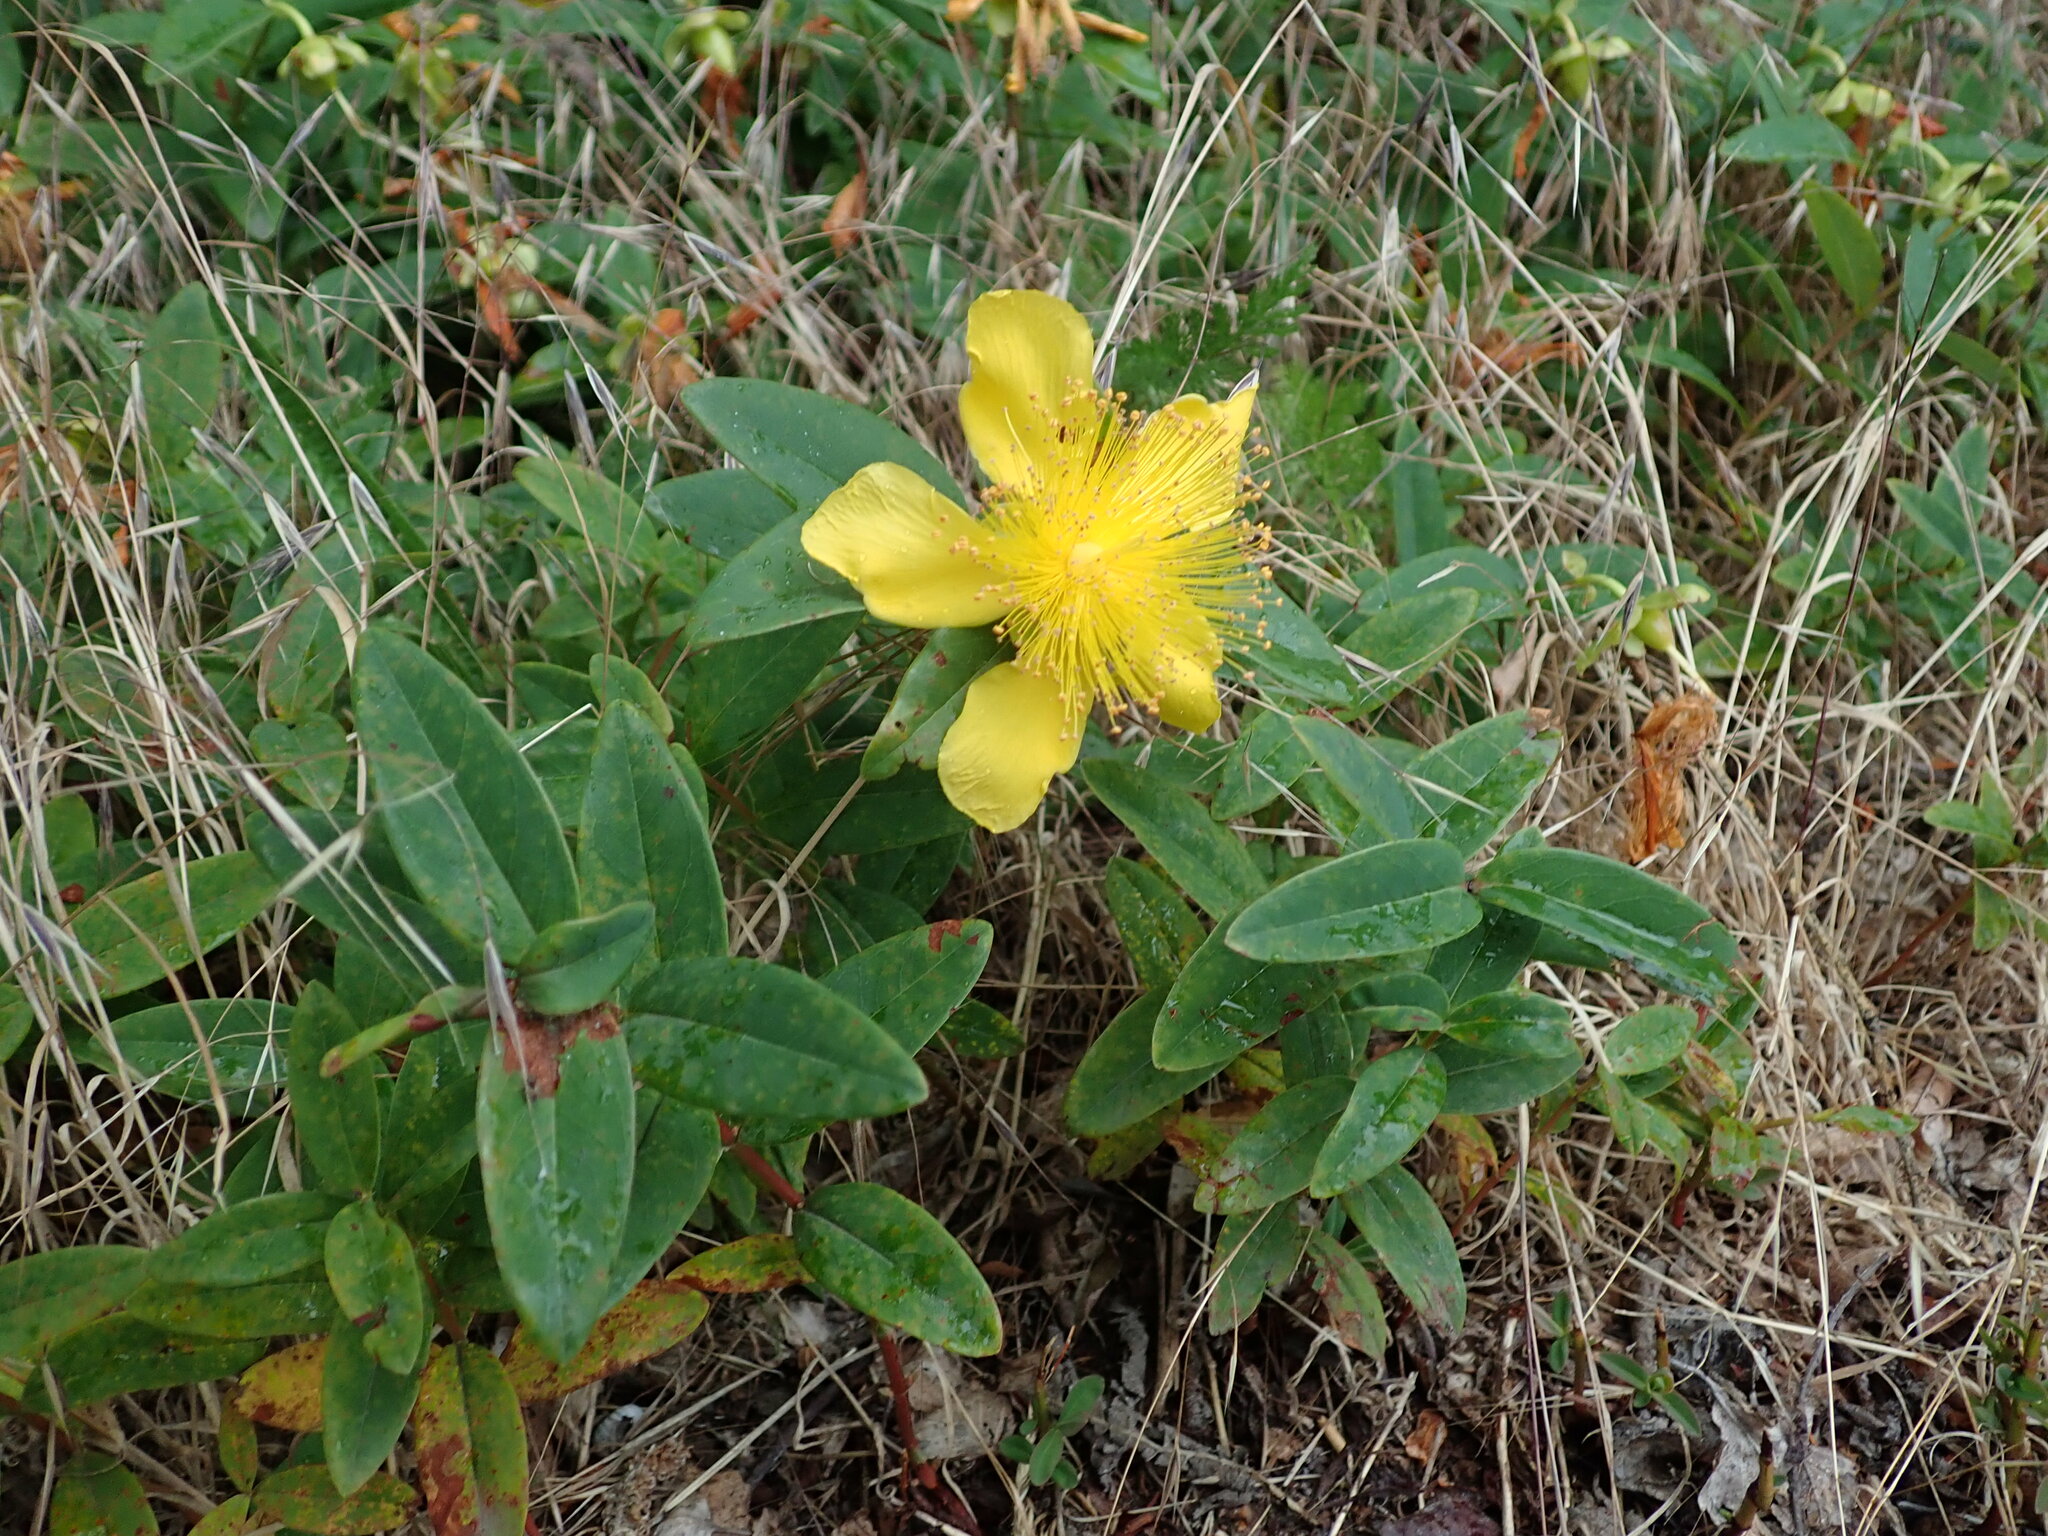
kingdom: Plantae
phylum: Tracheophyta
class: Magnoliopsida
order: Malpighiales
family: Hypericaceae
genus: Hypericum
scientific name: Hypericum calycinum
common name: Rose-of-sharon
